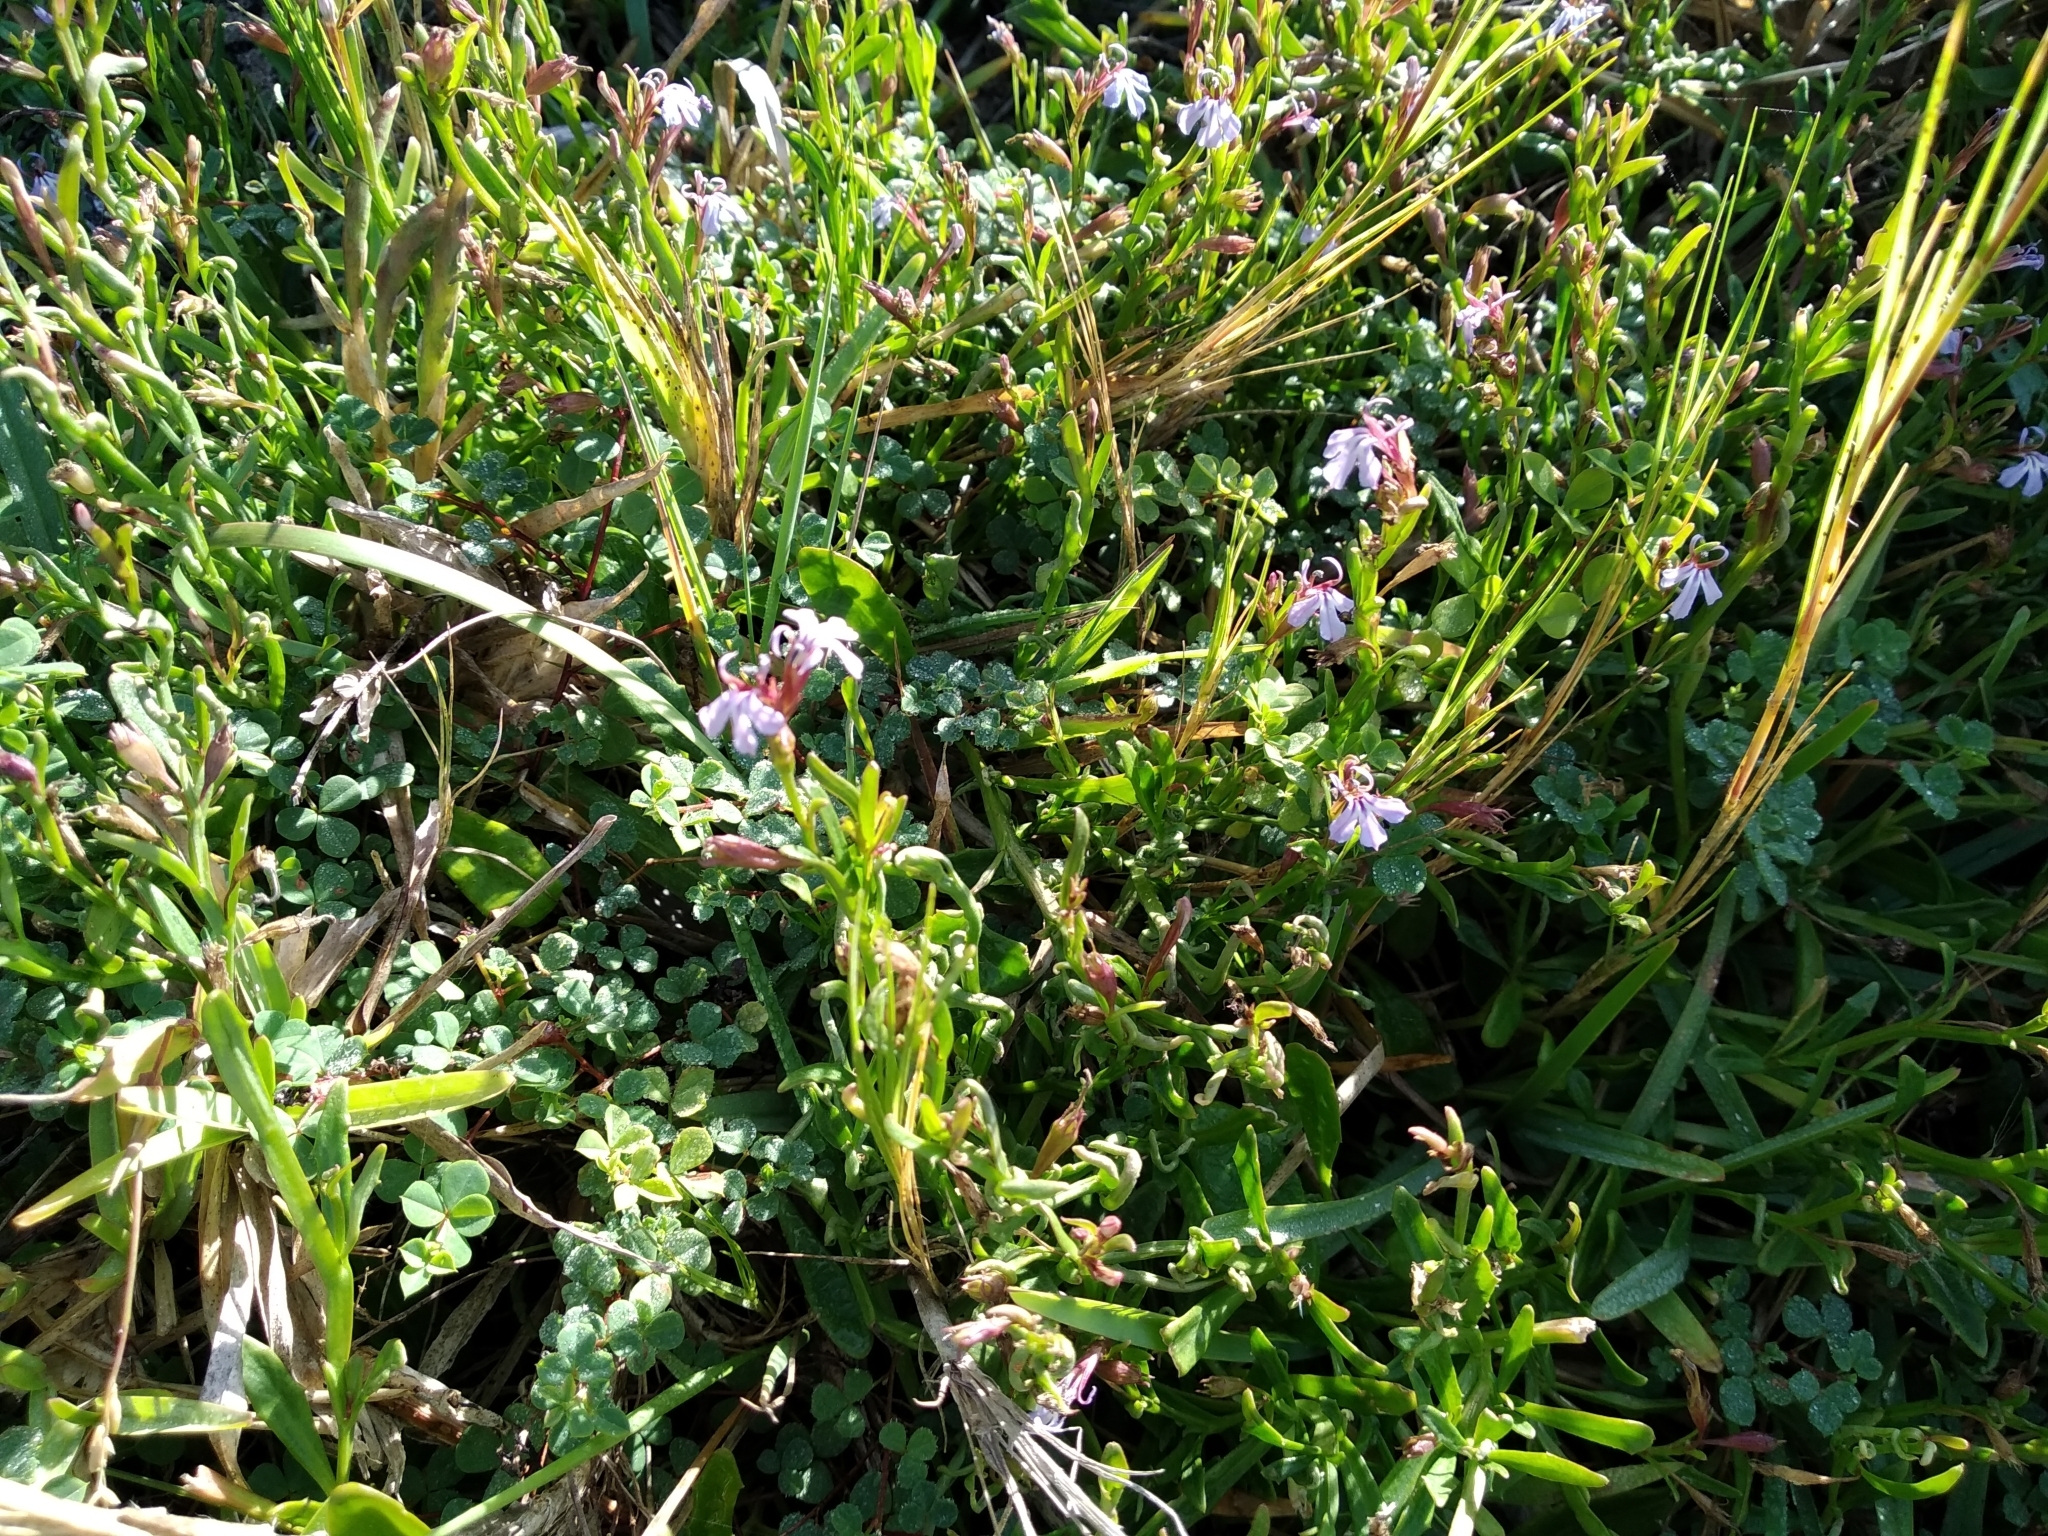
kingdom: Plantae
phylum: Tracheophyta
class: Magnoliopsida
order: Asterales
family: Campanulaceae
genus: Lobelia
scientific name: Lobelia anceps
